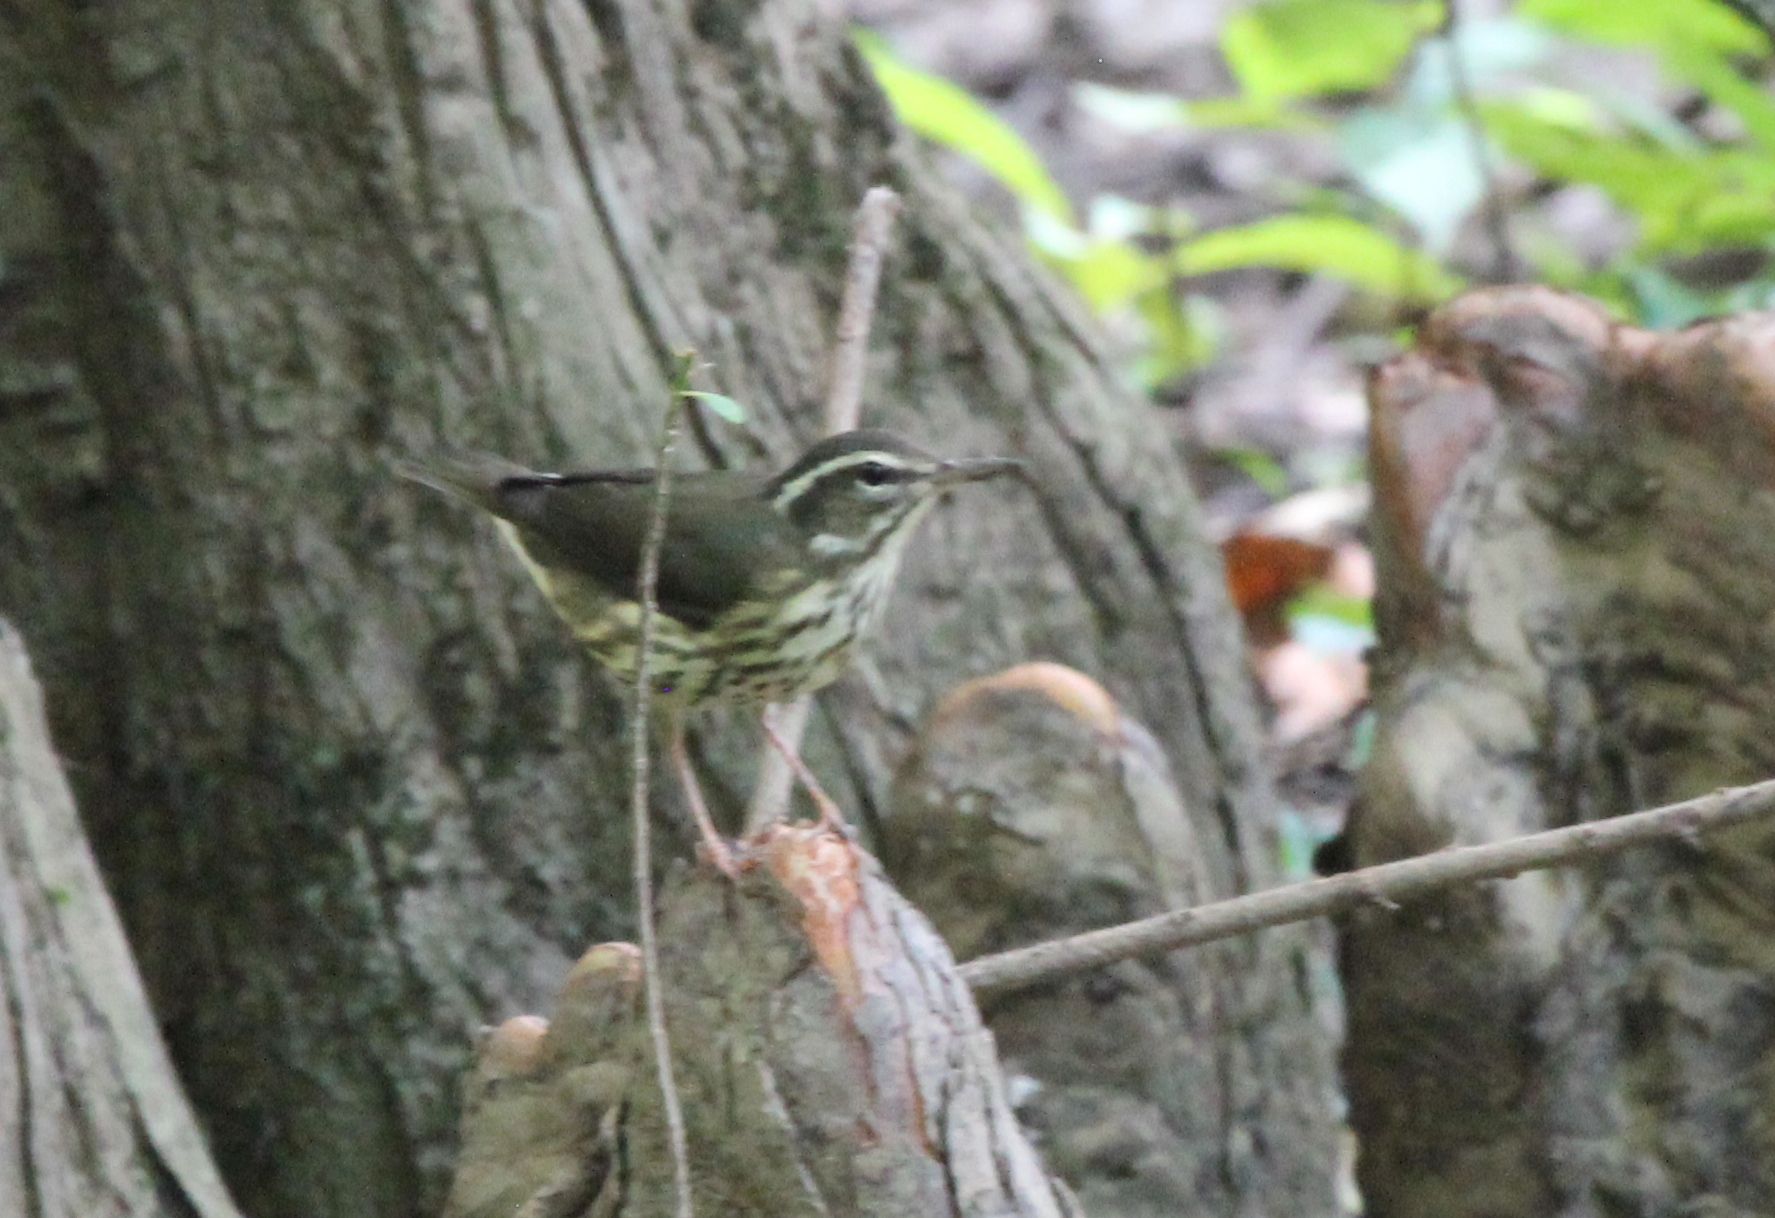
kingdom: Animalia
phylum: Chordata
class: Aves
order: Passeriformes
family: Parulidae
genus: Parkesia
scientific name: Parkesia motacilla
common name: Louisiana waterthrush
